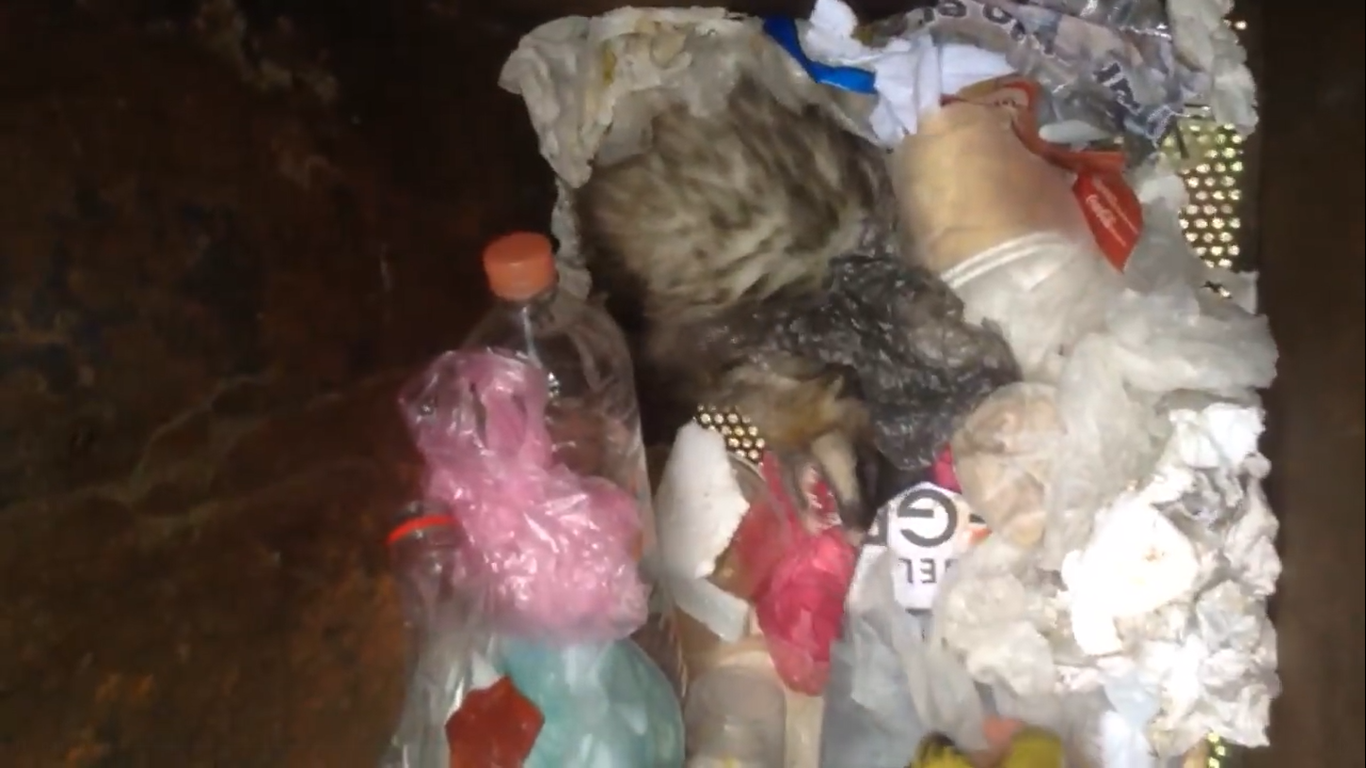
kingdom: Animalia
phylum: Chordata
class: Mammalia
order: Didelphimorphia
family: Didelphidae
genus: Didelphis
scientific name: Didelphis virginiana
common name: Virginia opossum
